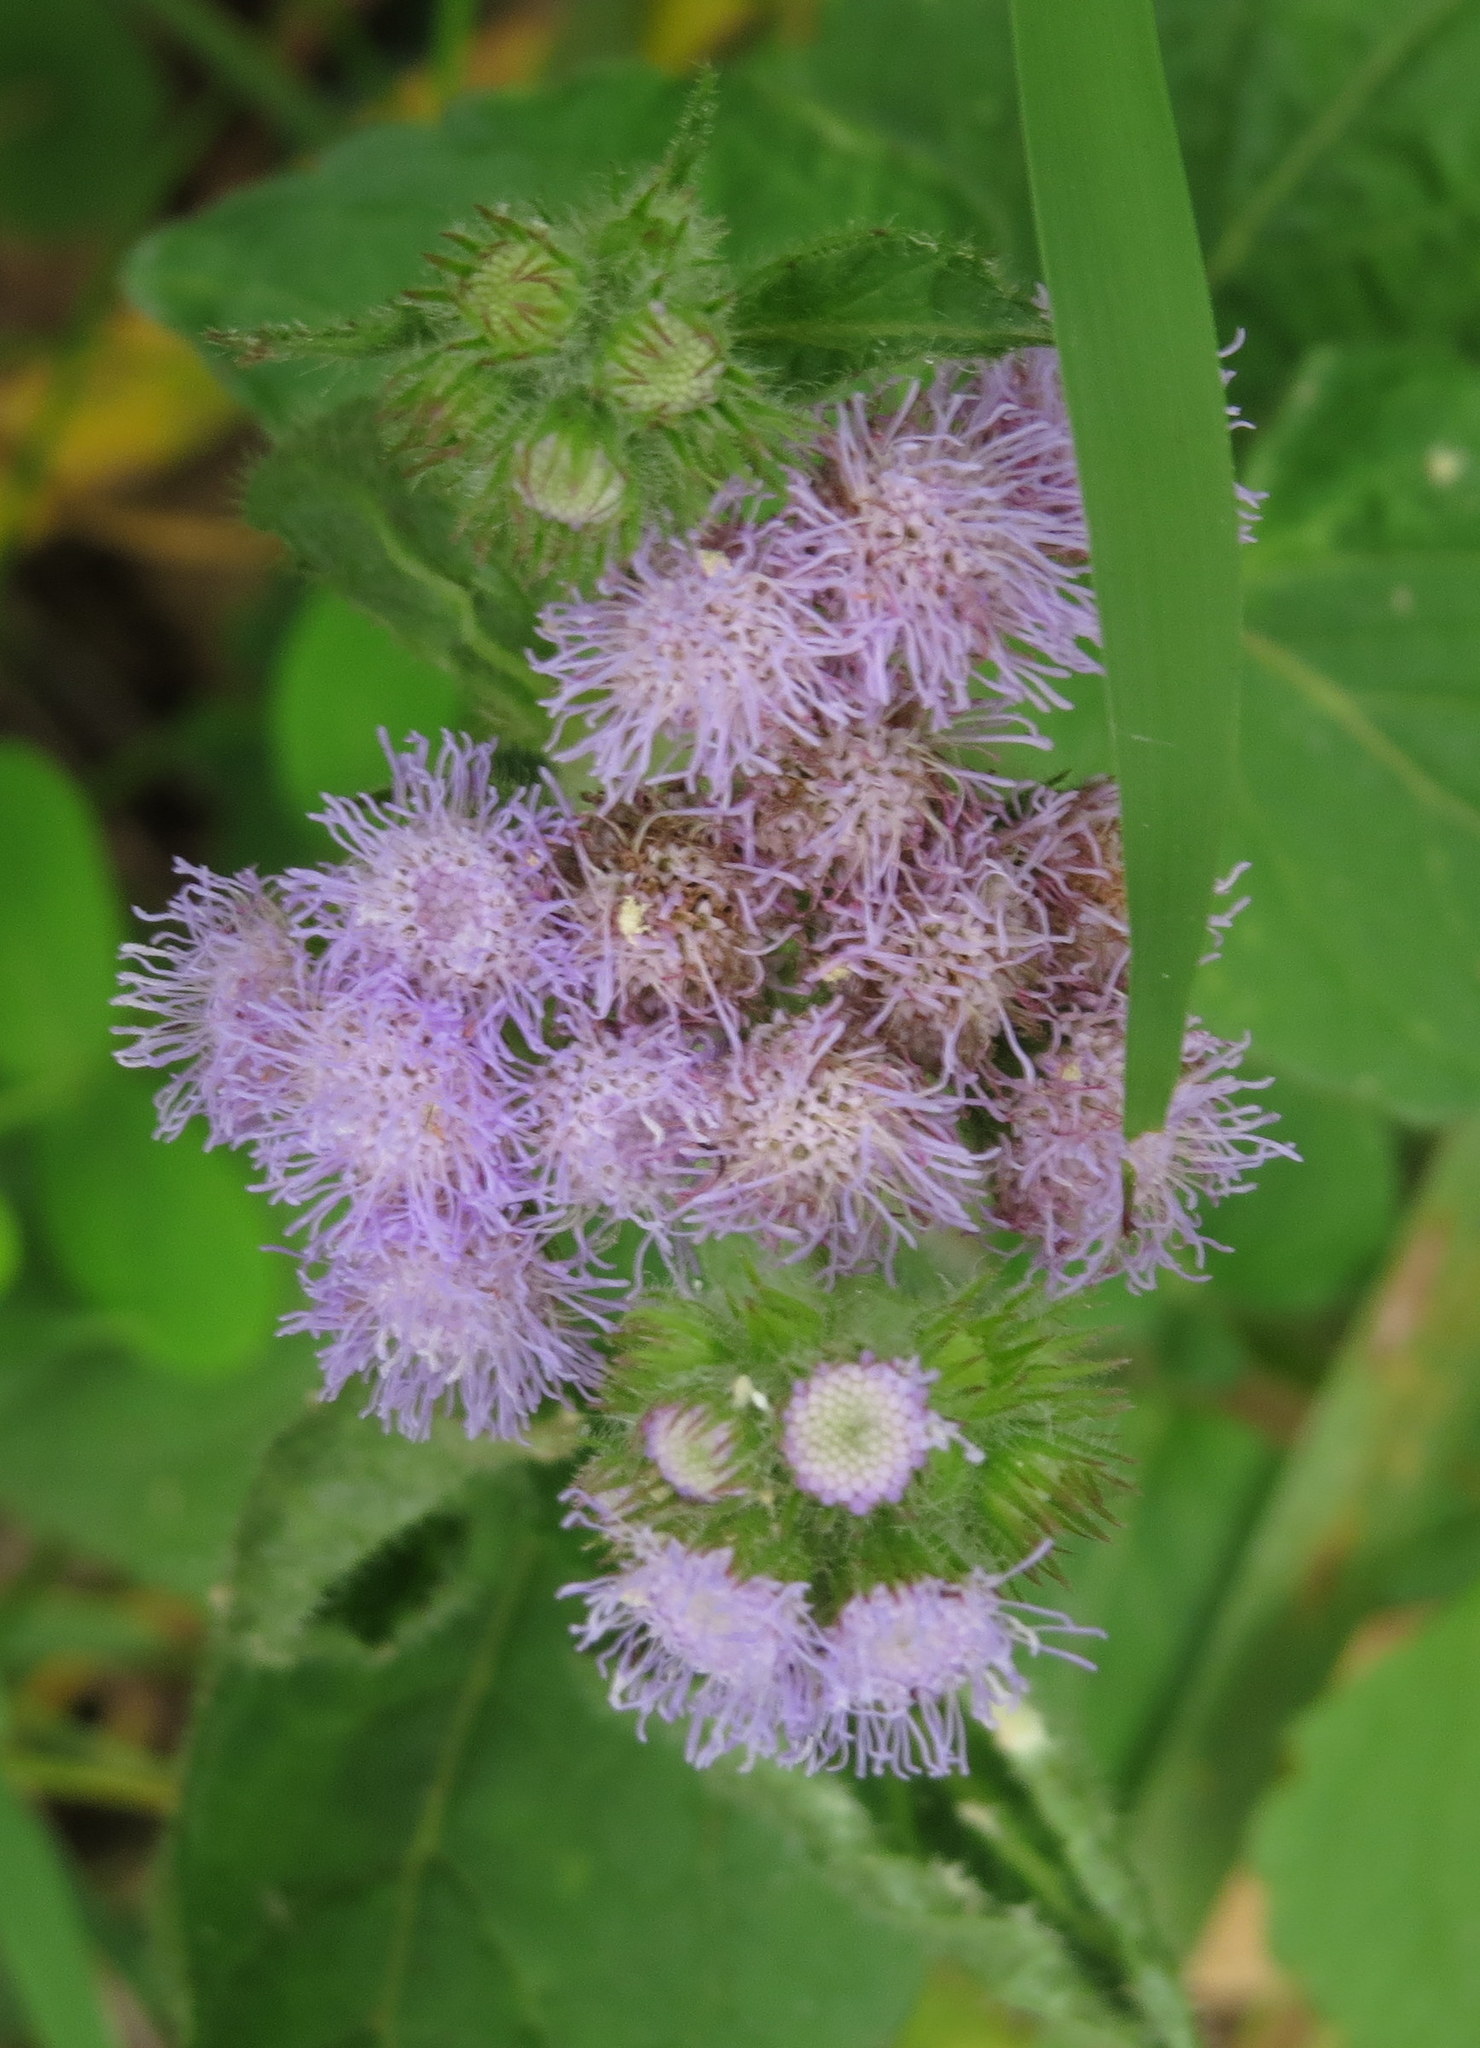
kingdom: Plantae
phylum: Tracheophyta
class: Magnoliopsida
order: Asterales
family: Asteraceae
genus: Ageratum
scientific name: Ageratum houstonianum
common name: Bluemink
